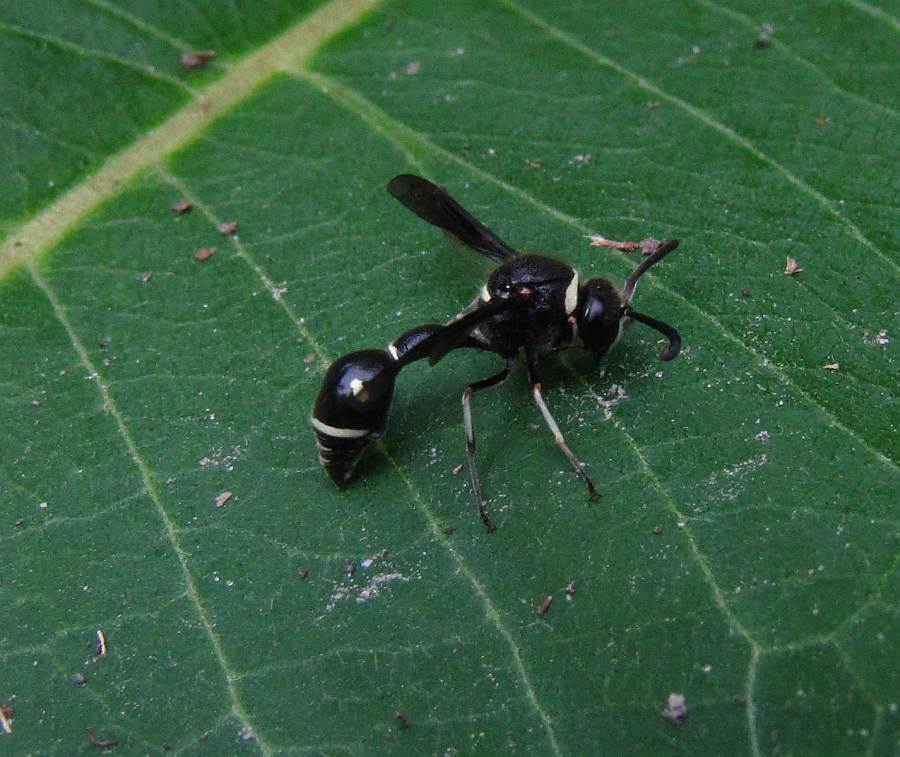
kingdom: Animalia
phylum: Arthropoda
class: Insecta
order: Hymenoptera
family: Vespidae
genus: Eumenes
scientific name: Eumenes fraternus
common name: Fraternal potter wasp
